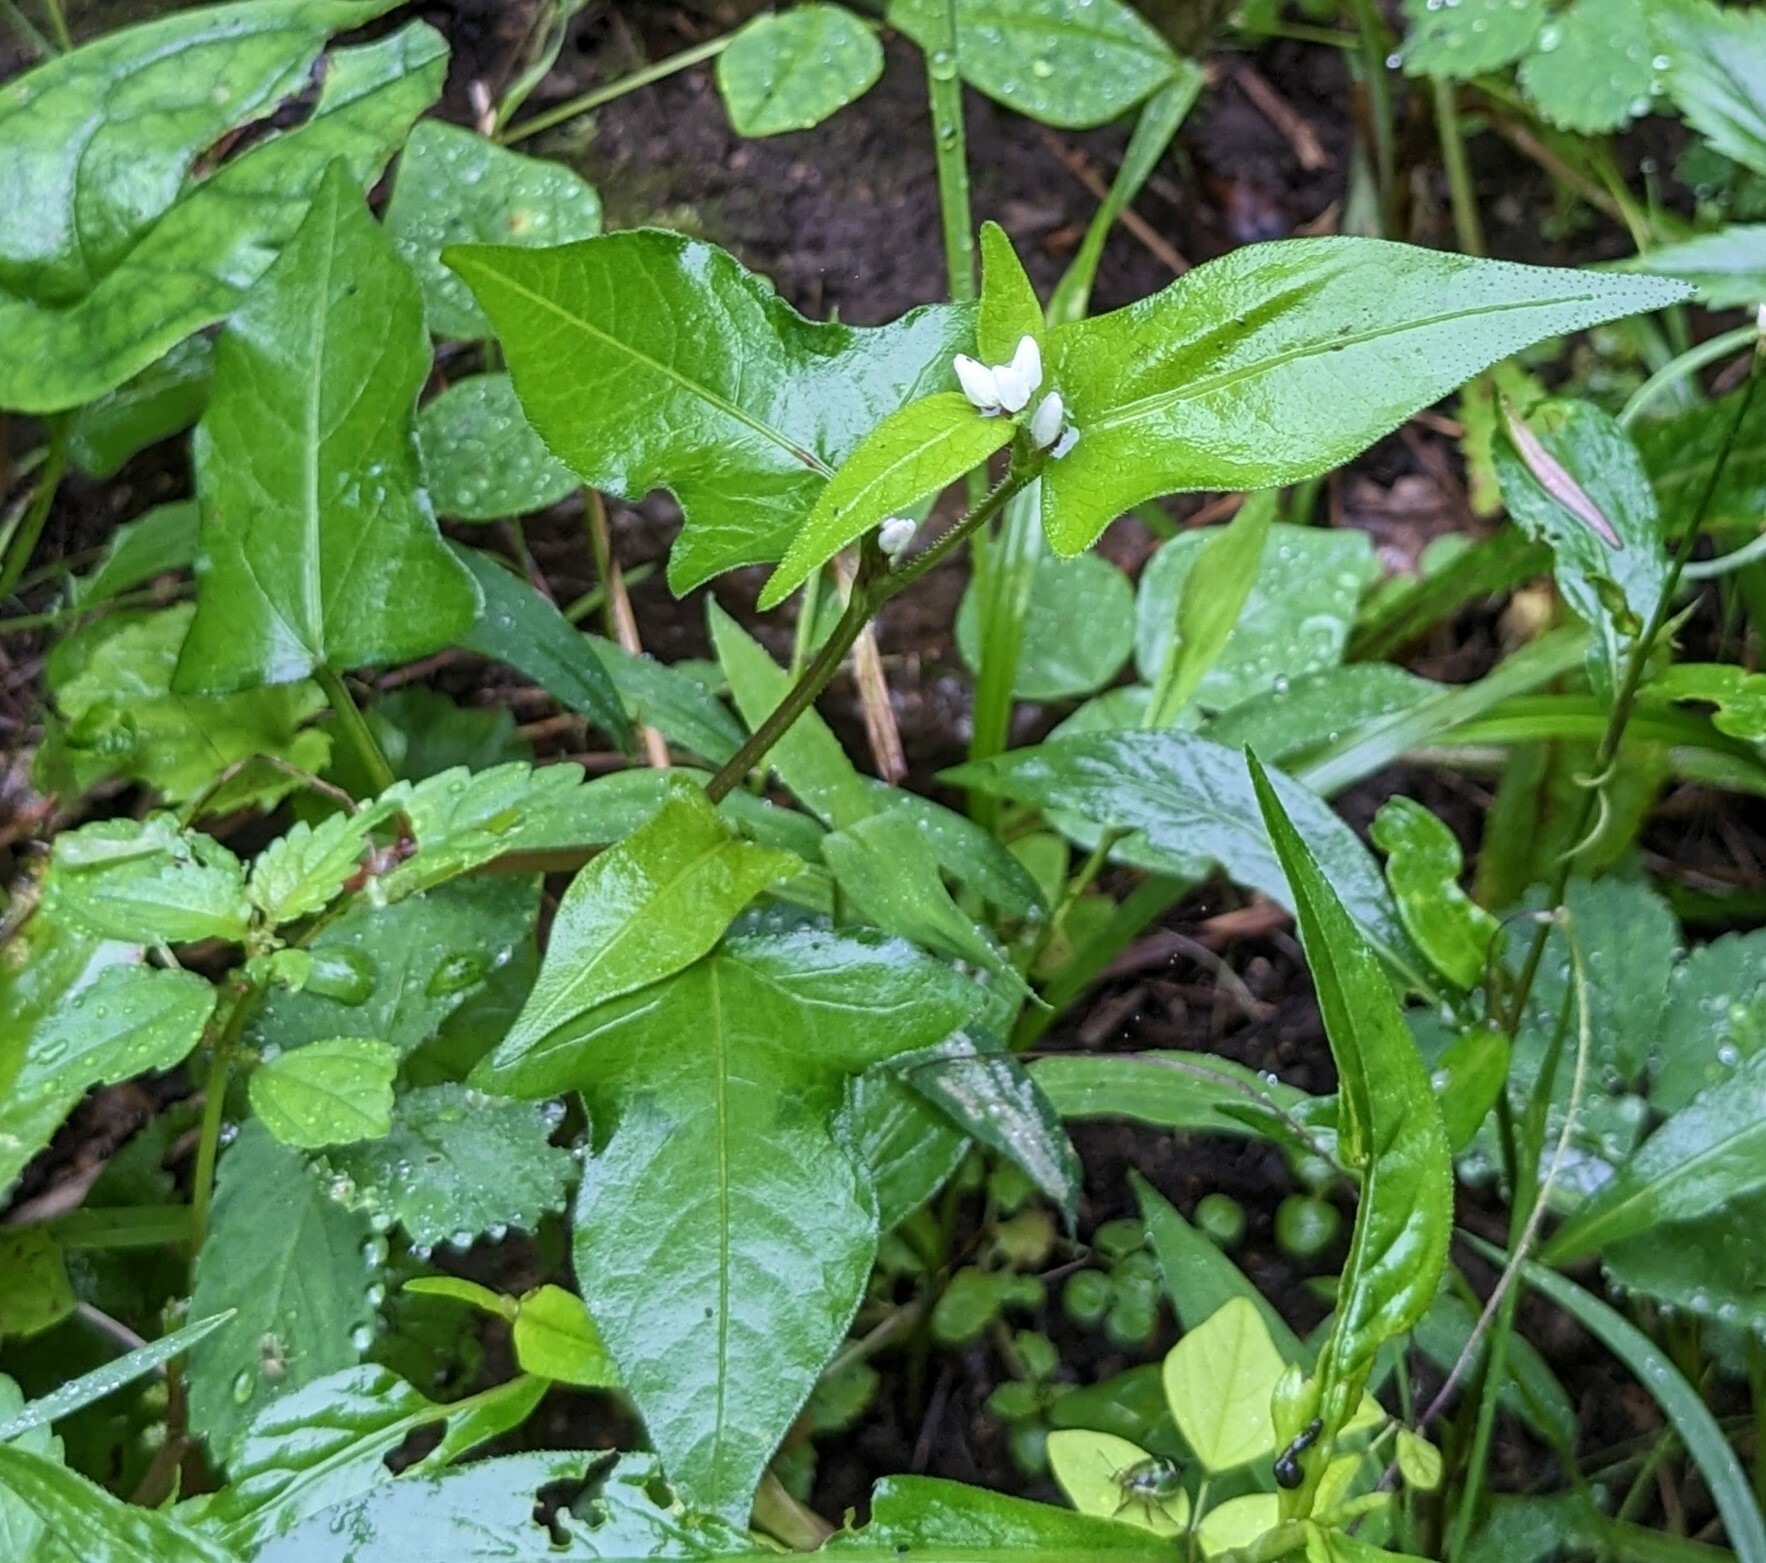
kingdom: Plantae
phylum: Tracheophyta
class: Magnoliopsida
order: Caryophyllales
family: Polygonaceae
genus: Persicaria
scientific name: Persicaria thunbergii
